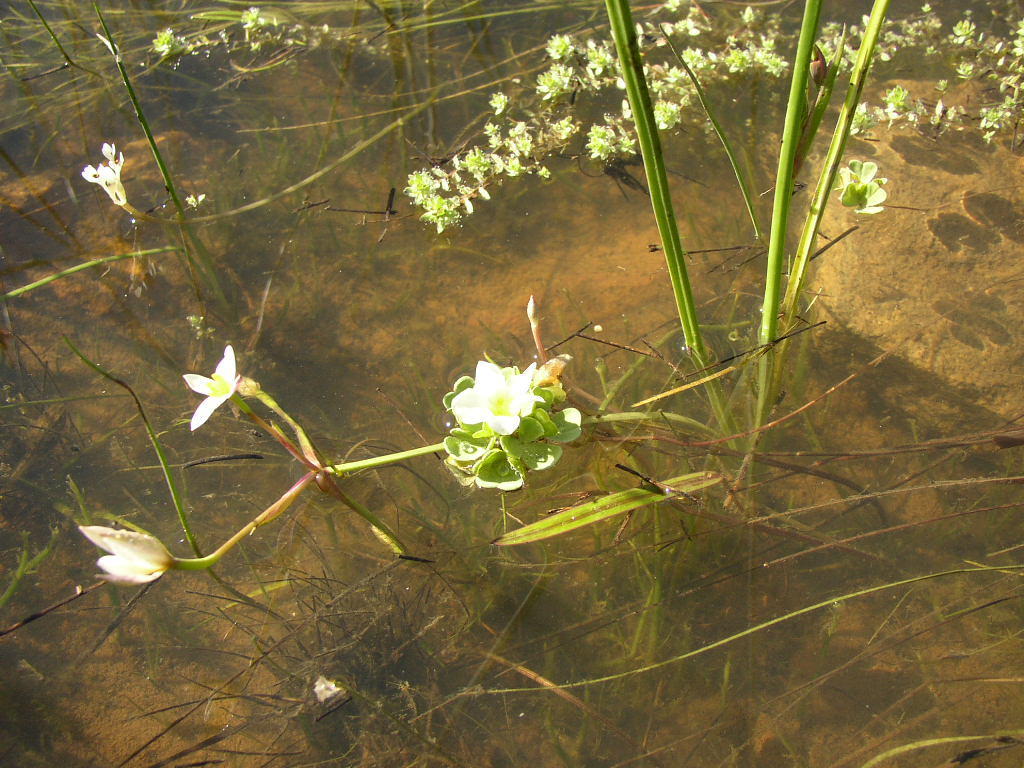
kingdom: Plantae
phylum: Tracheophyta
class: Magnoliopsida
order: Oxalidales
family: Oxalidaceae
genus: Oxalis
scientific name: Oxalis natans
